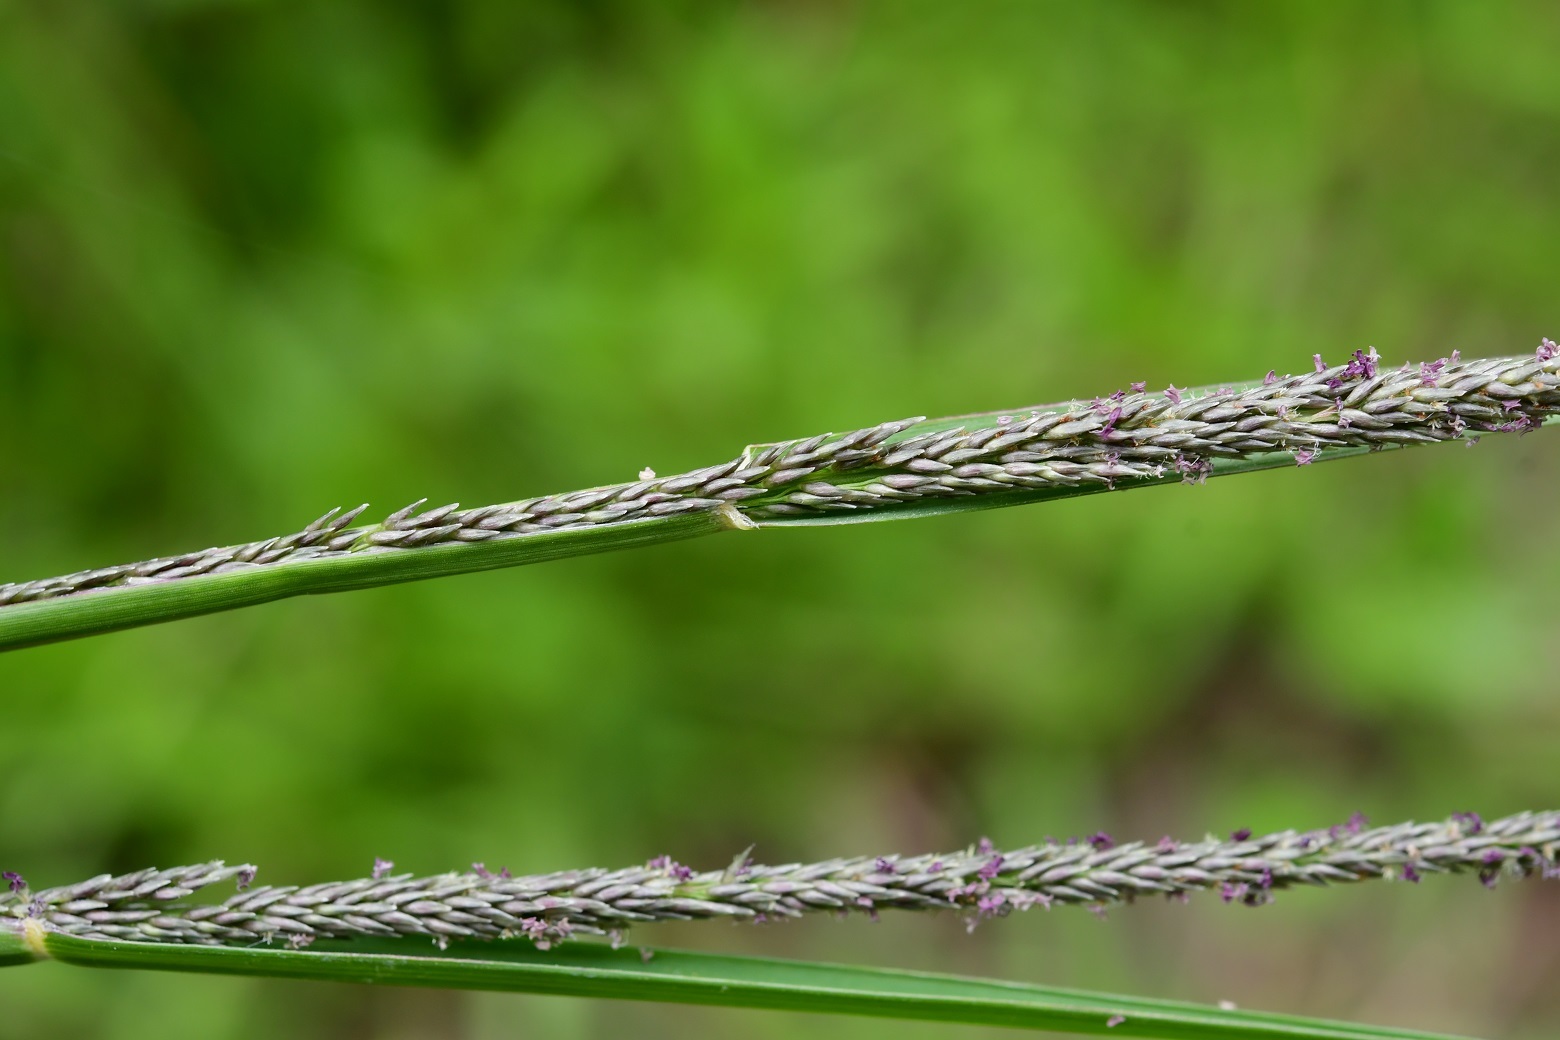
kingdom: Plantae
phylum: Tracheophyta
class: Liliopsida
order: Poales
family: Poaceae
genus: Sporobolus
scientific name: Sporobolus indicus
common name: Smut grass
